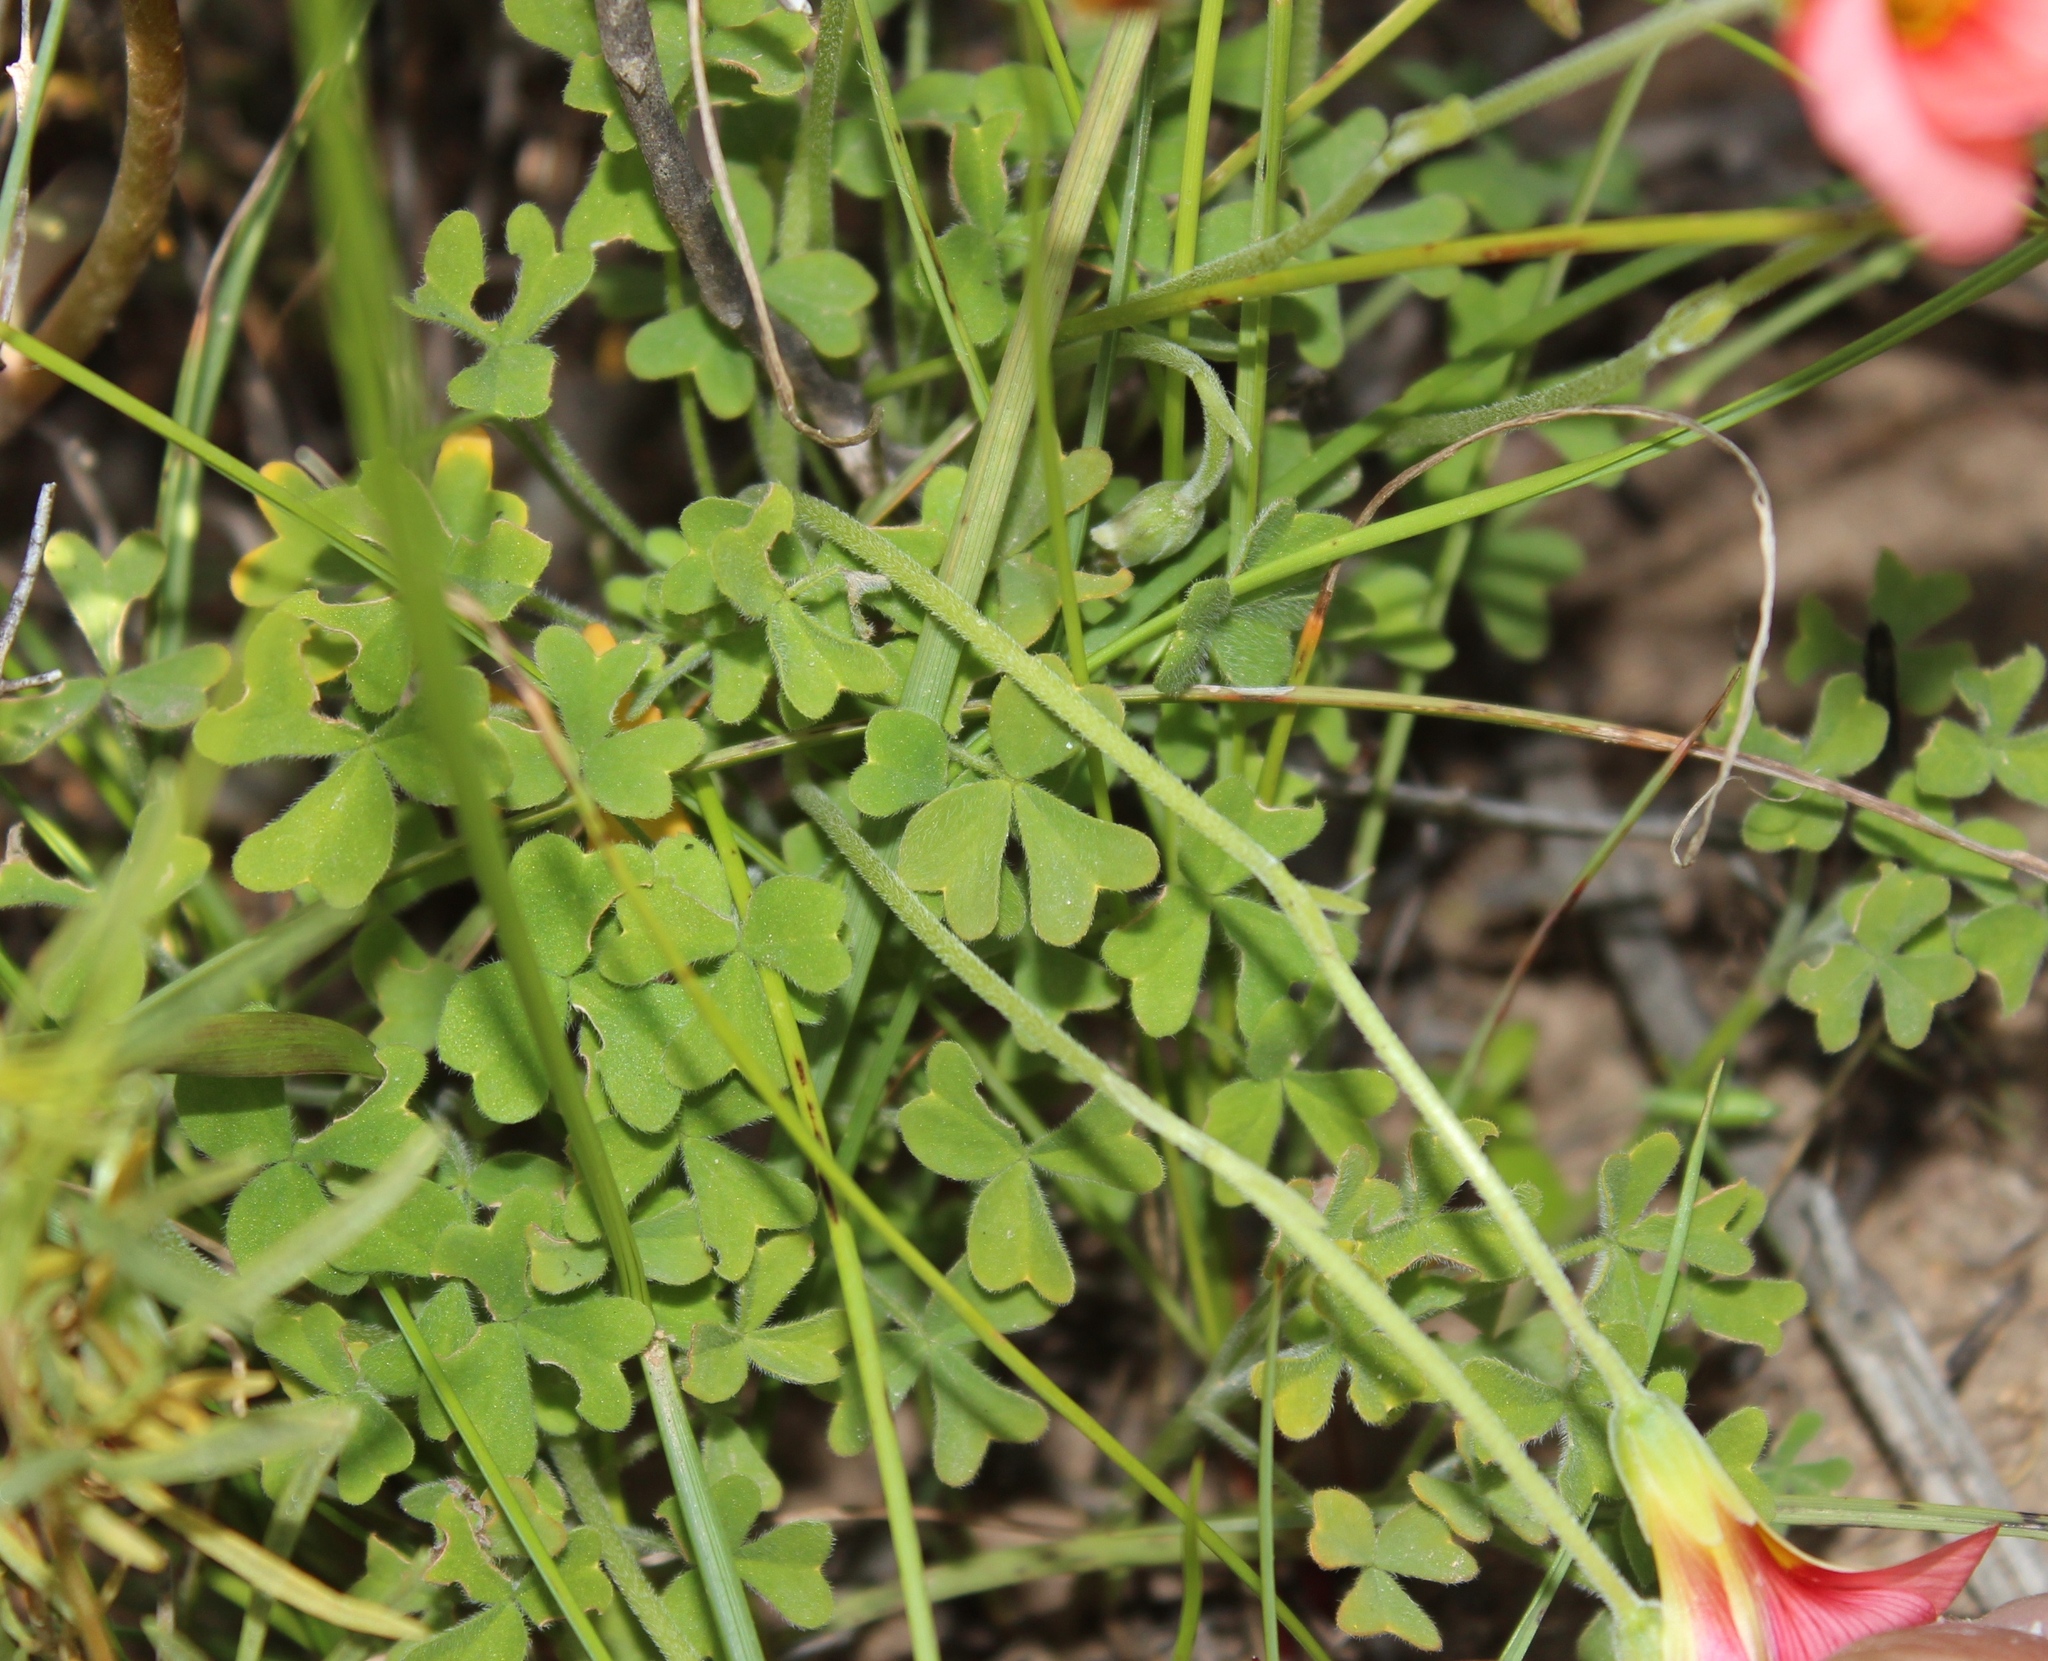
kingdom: Plantae
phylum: Tracheophyta
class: Magnoliopsida
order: Oxalidales
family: Oxalidaceae
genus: Oxalis
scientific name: Oxalis obtusa
